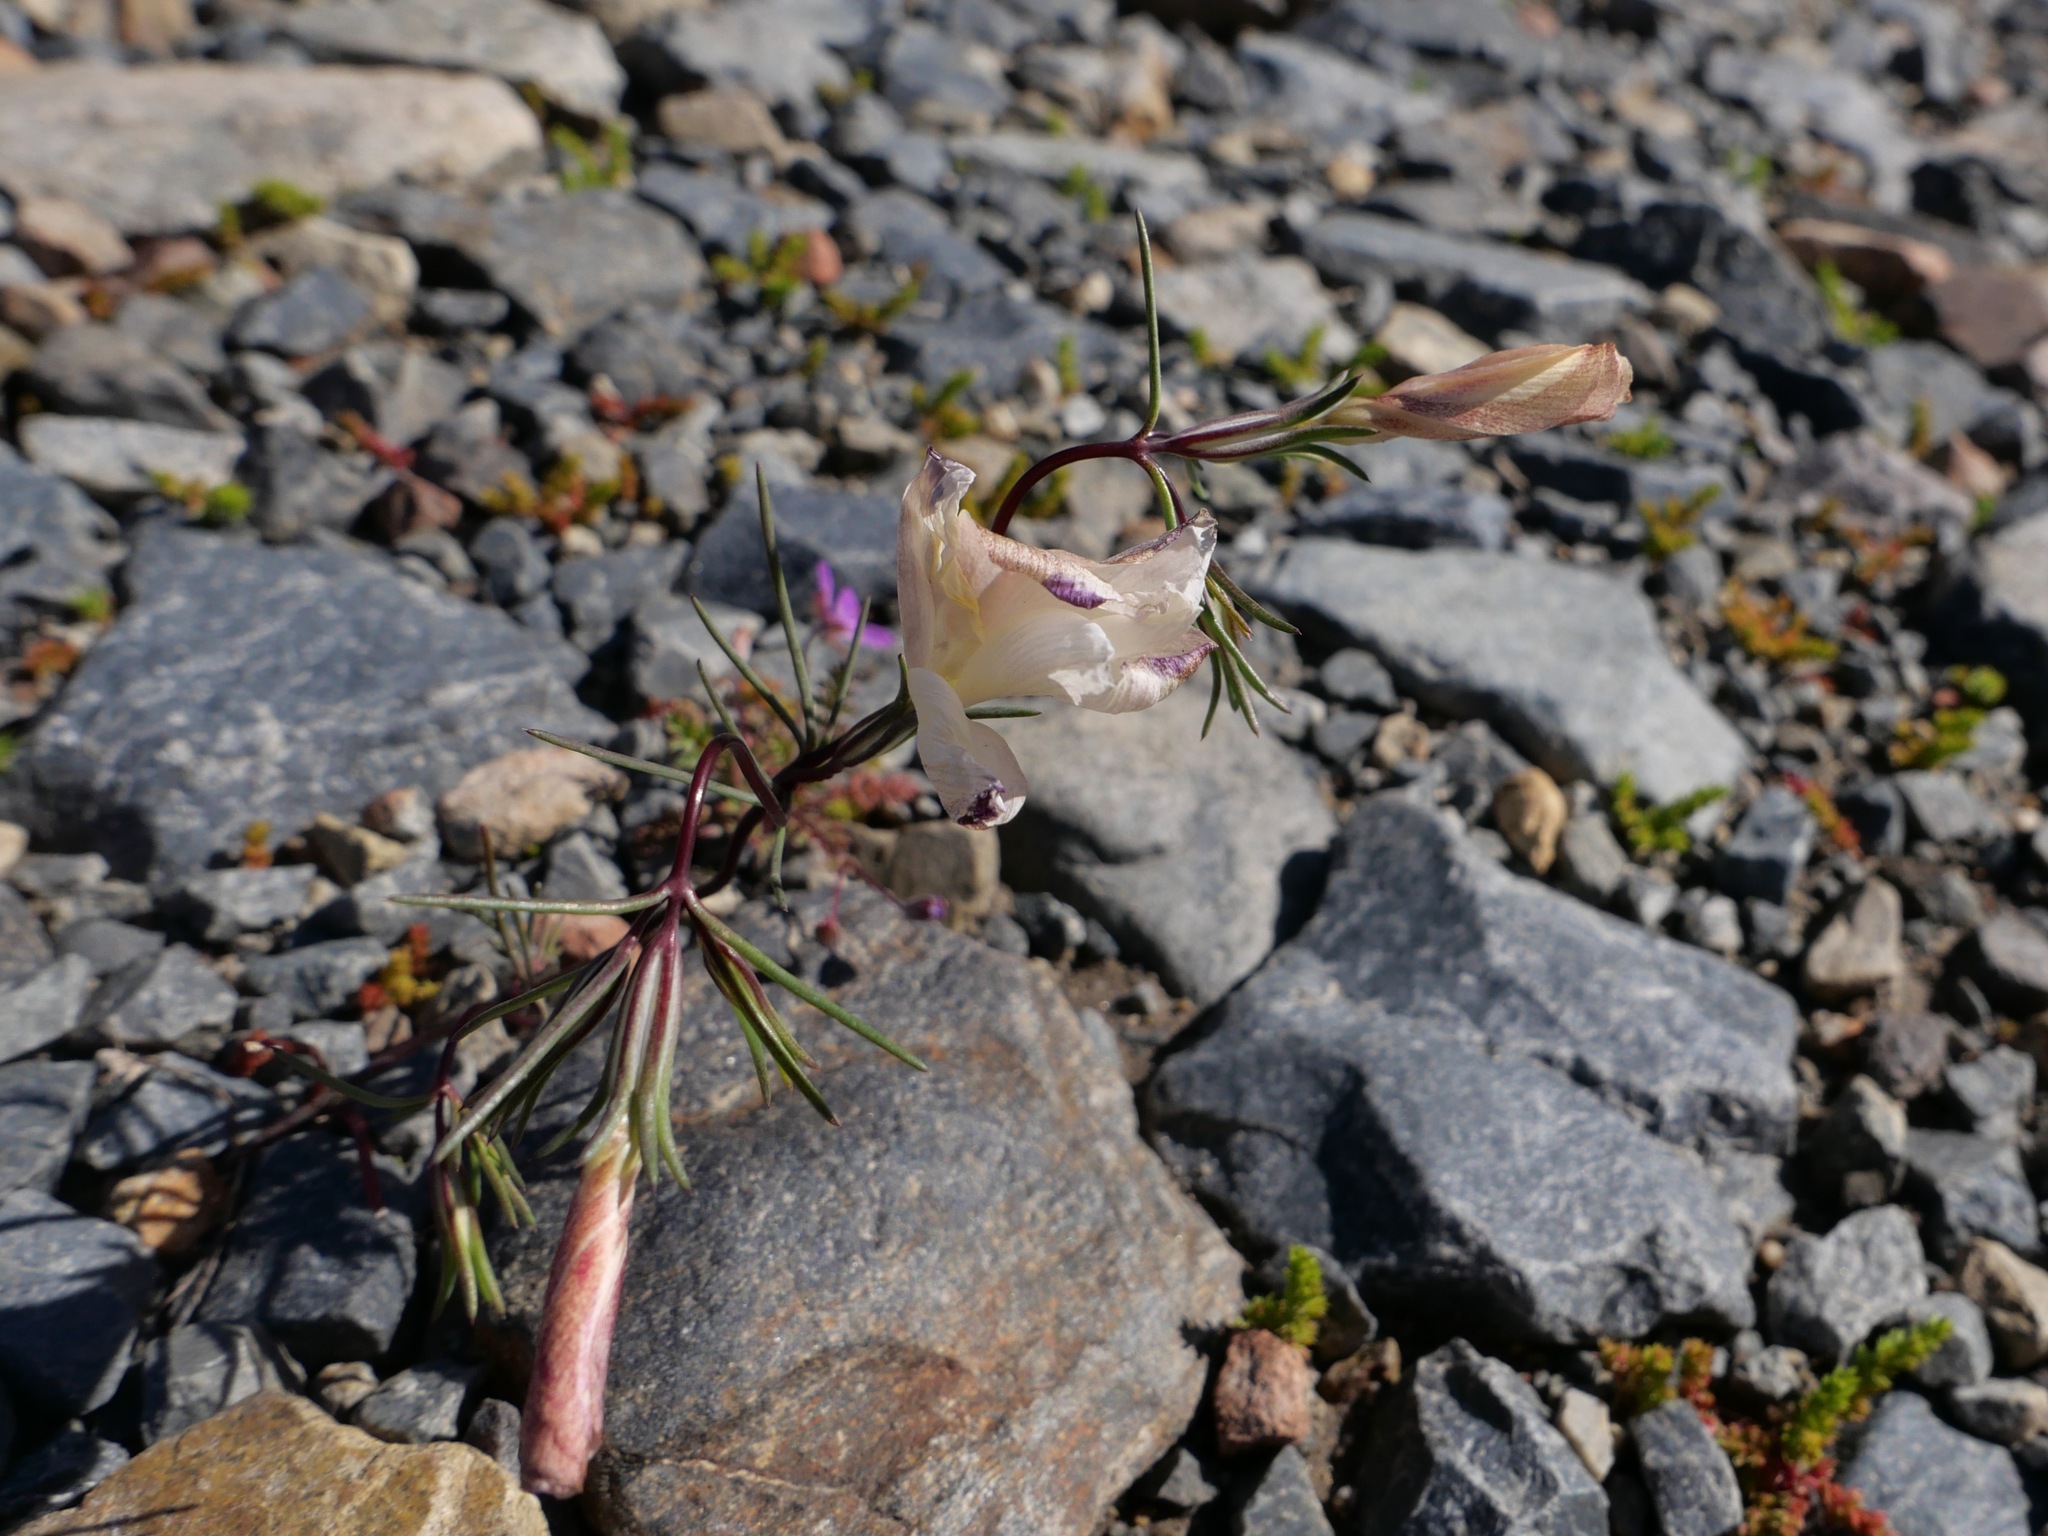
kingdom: Plantae
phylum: Tracheophyta
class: Magnoliopsida
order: Ericales
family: Polemoniaceae
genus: Linanthus
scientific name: Linanthus dichotomus
